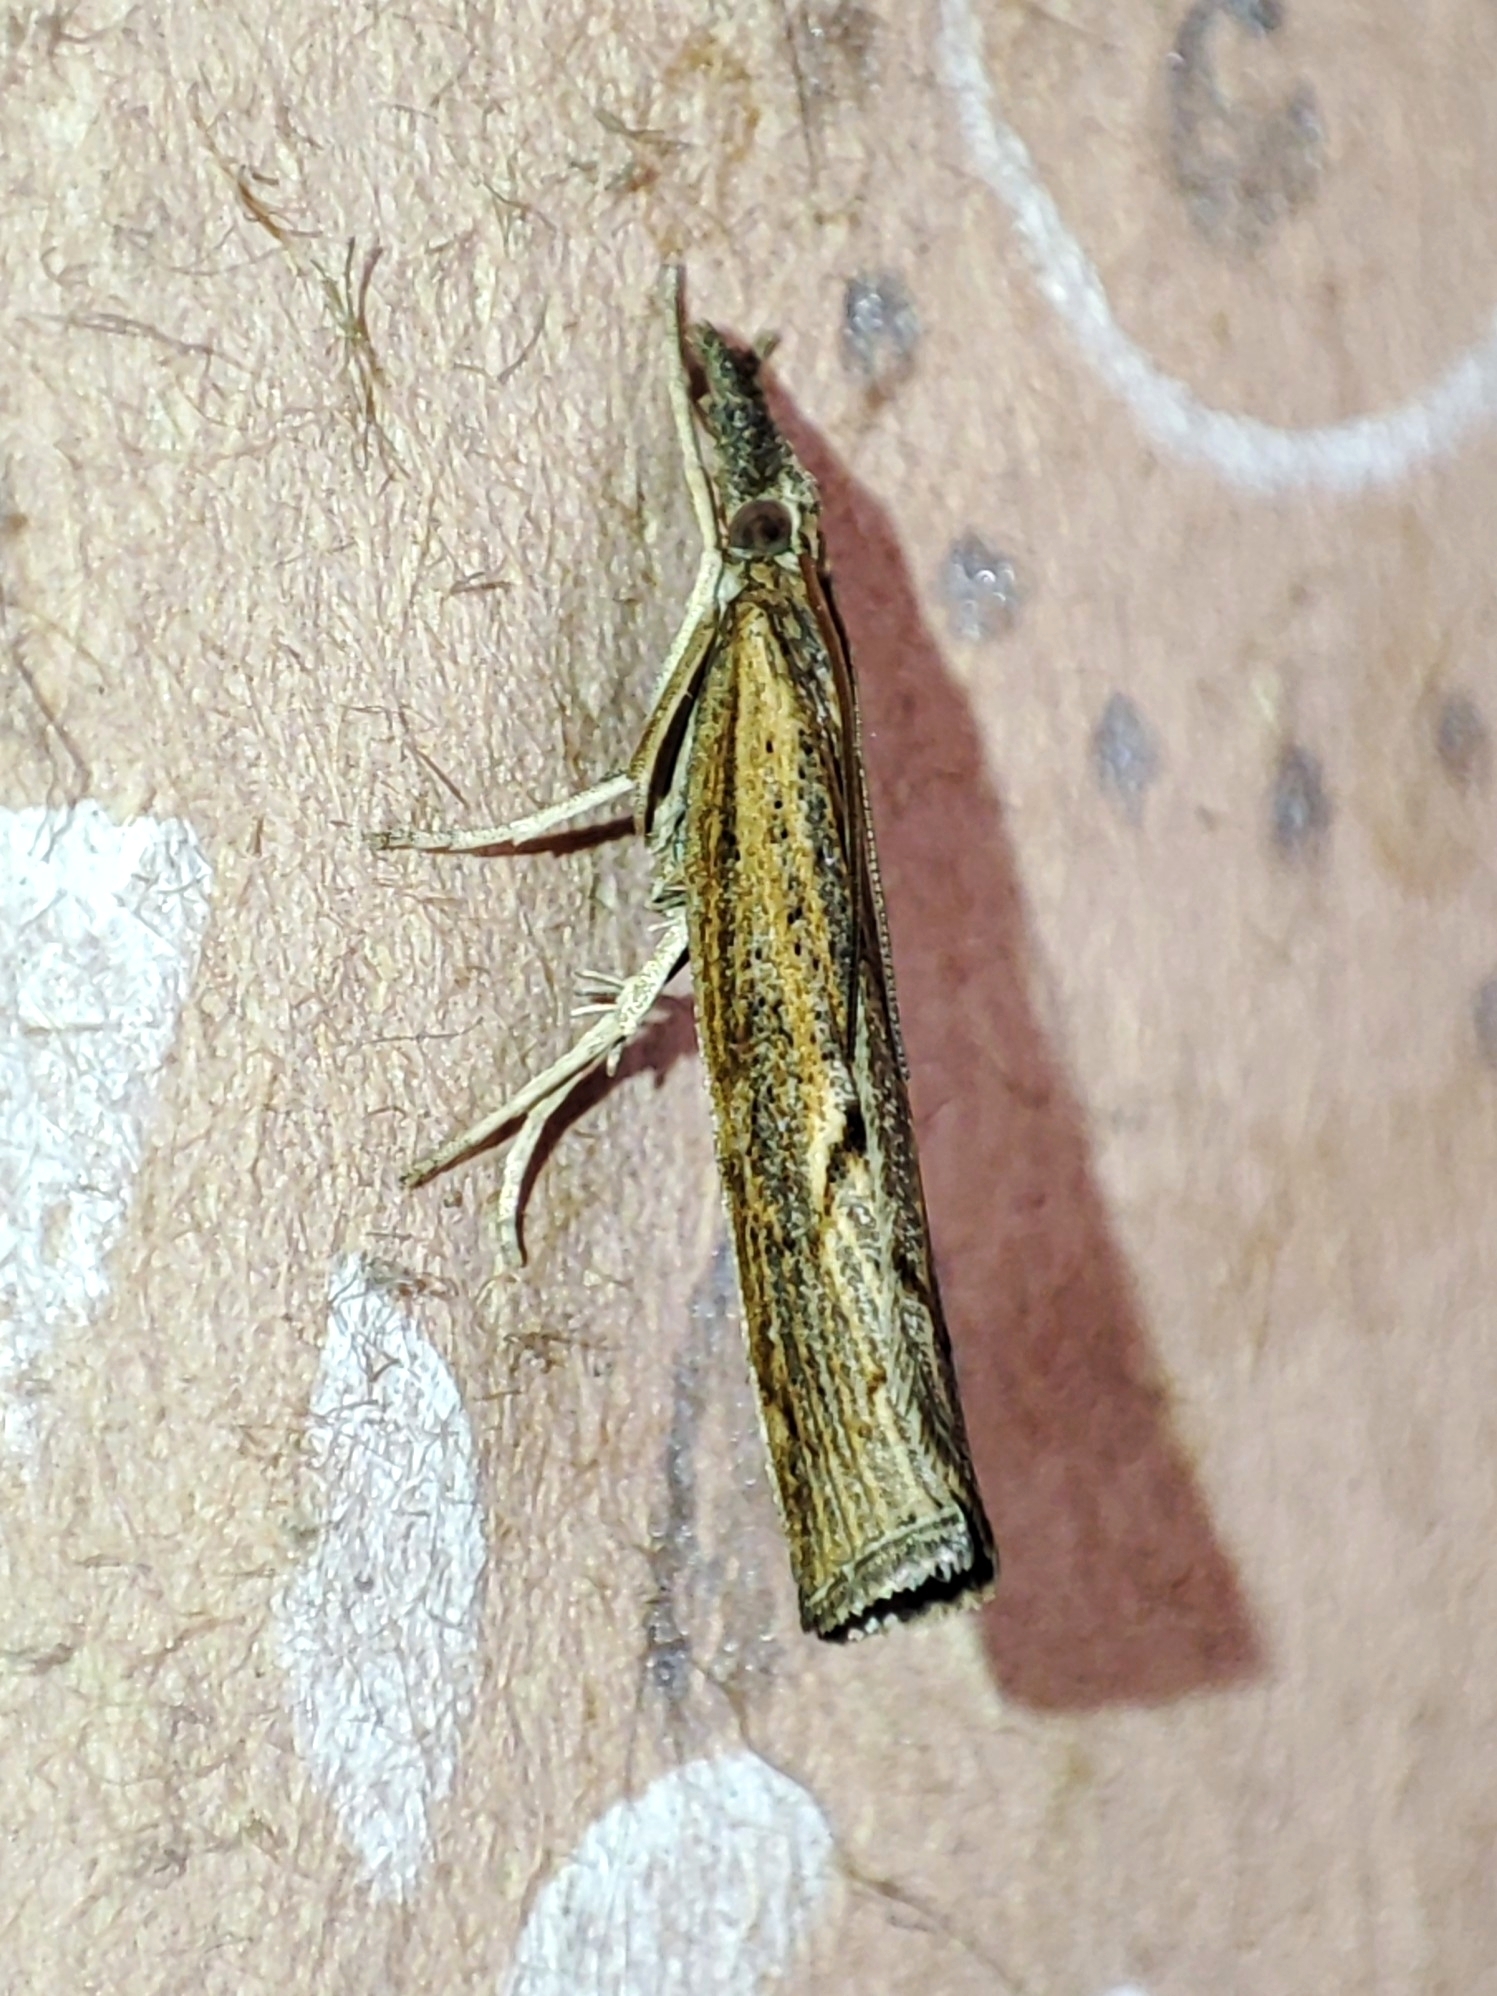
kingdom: Animalia
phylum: Arthropoda
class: Insecta
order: Lepidoptera
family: Crambidae
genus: Pediasia
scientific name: Pediasia contaminella
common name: Waste grass-veneer
